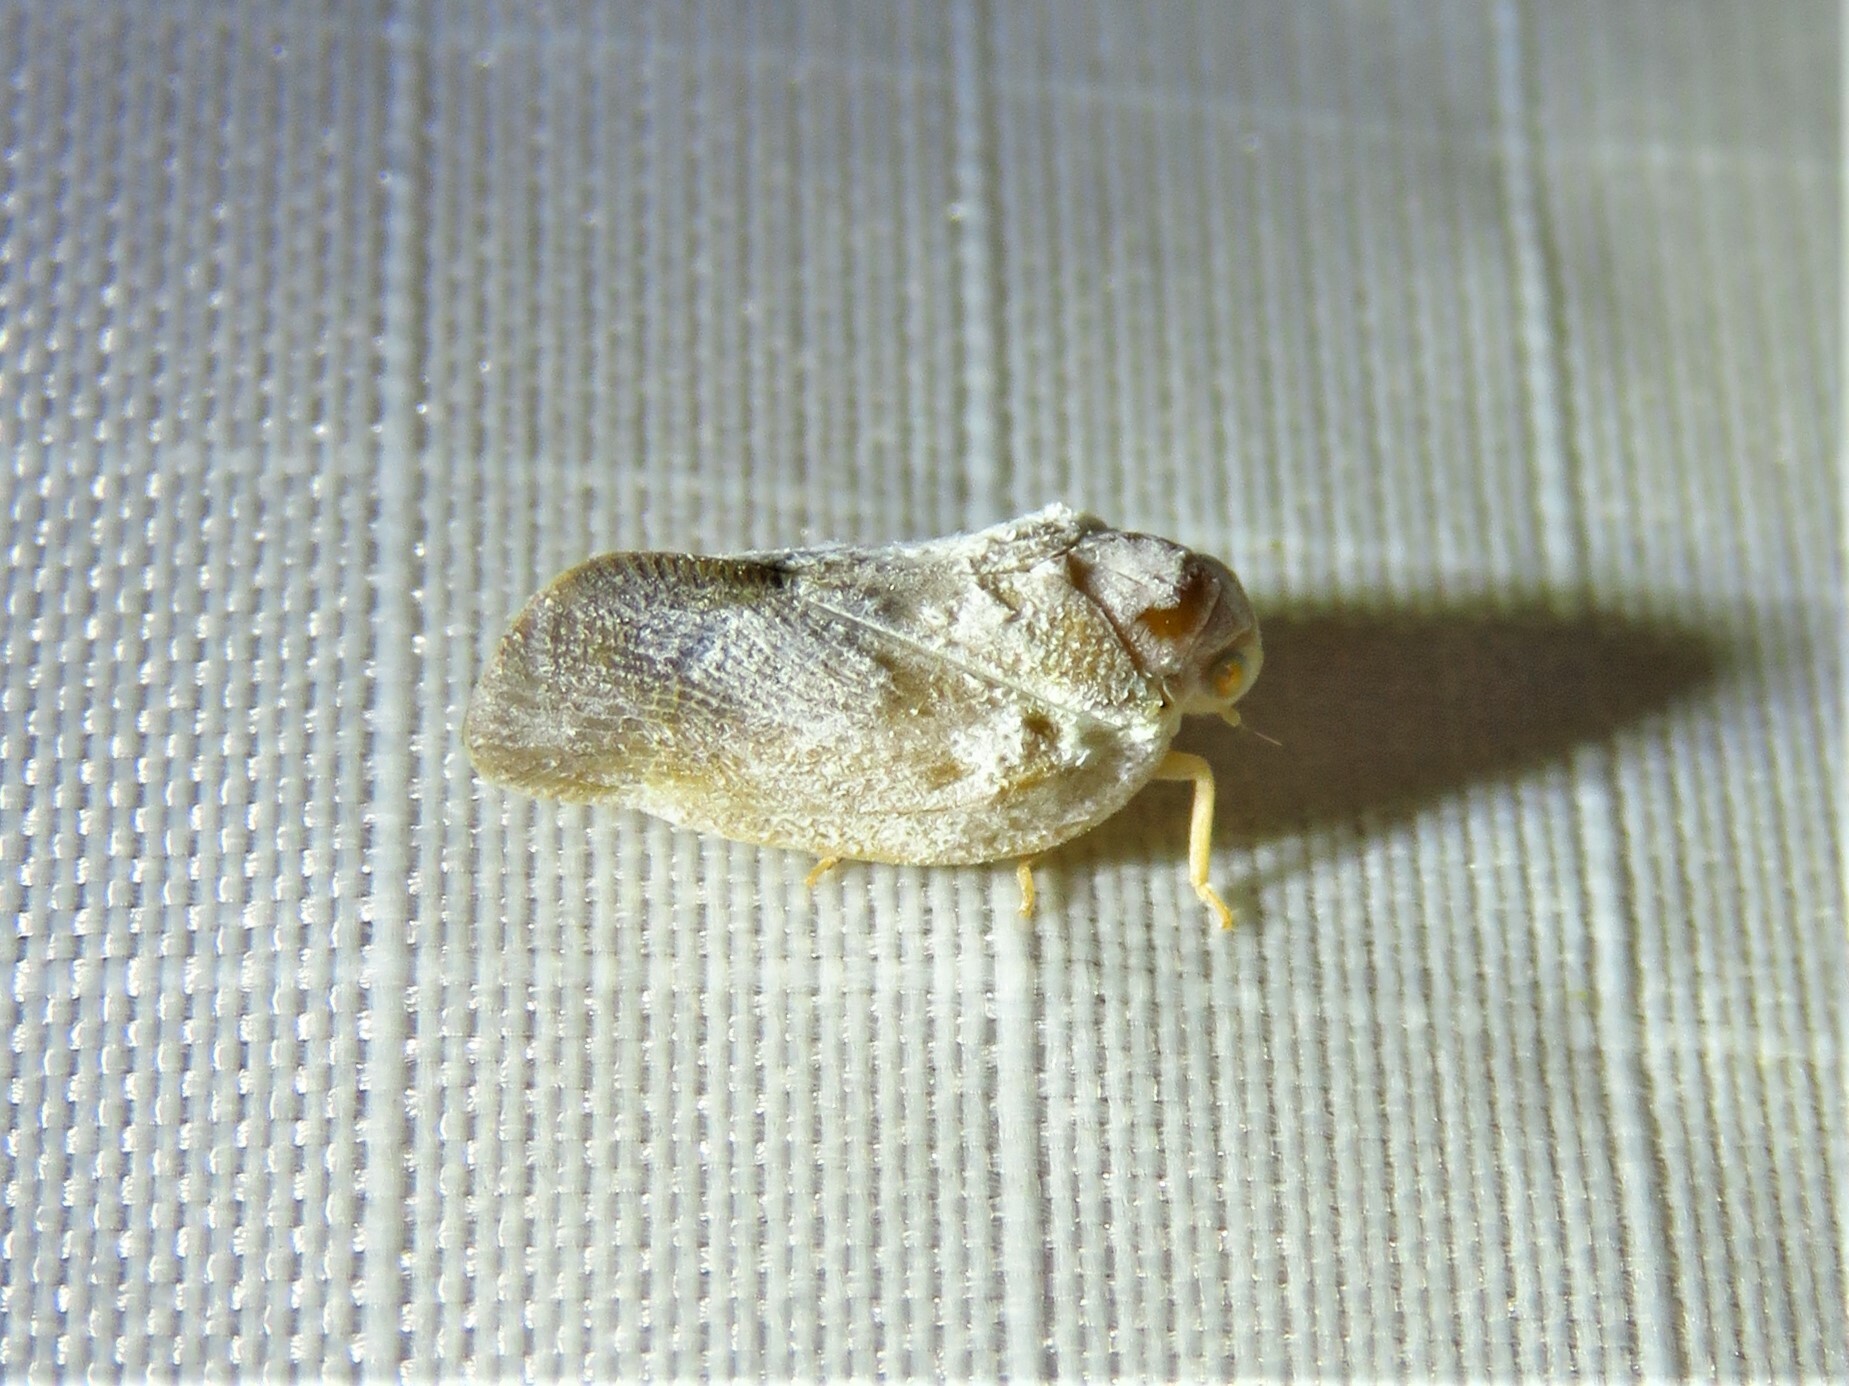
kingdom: Animalia
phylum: Arthropoda
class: Insecta
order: Hemiptera
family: Flatidae
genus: Metcalfa
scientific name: Metcalfa pruinosa
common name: Citrus flatid planthopper
